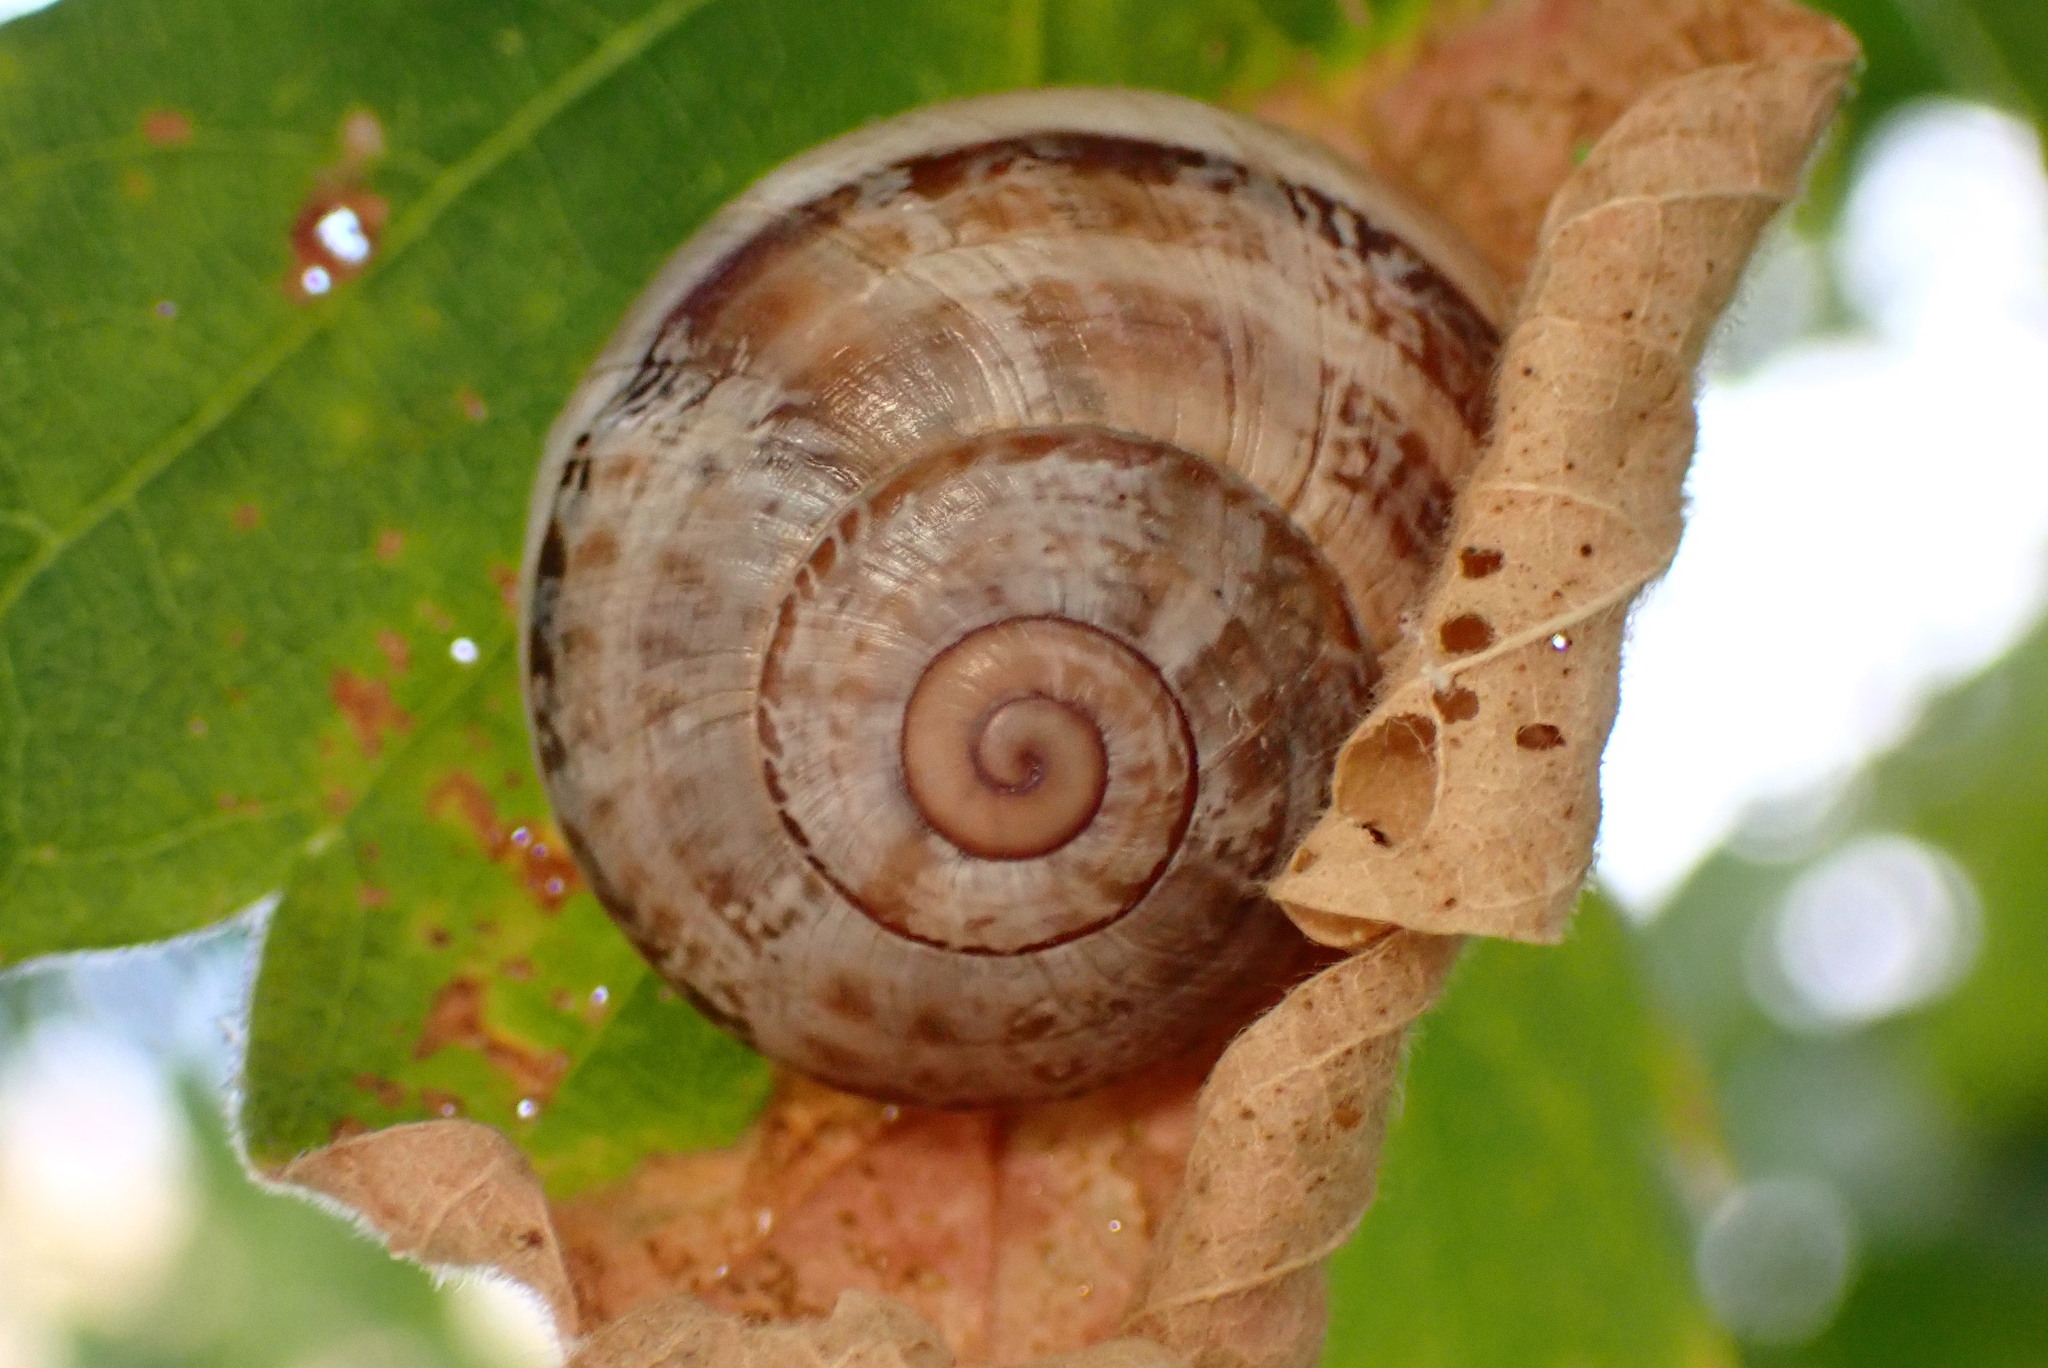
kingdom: Animalia
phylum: Mollusca
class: Gastropoda
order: Stylommatophora
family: Helicidae
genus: Otala
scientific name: Otala lactea
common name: Milk snail
